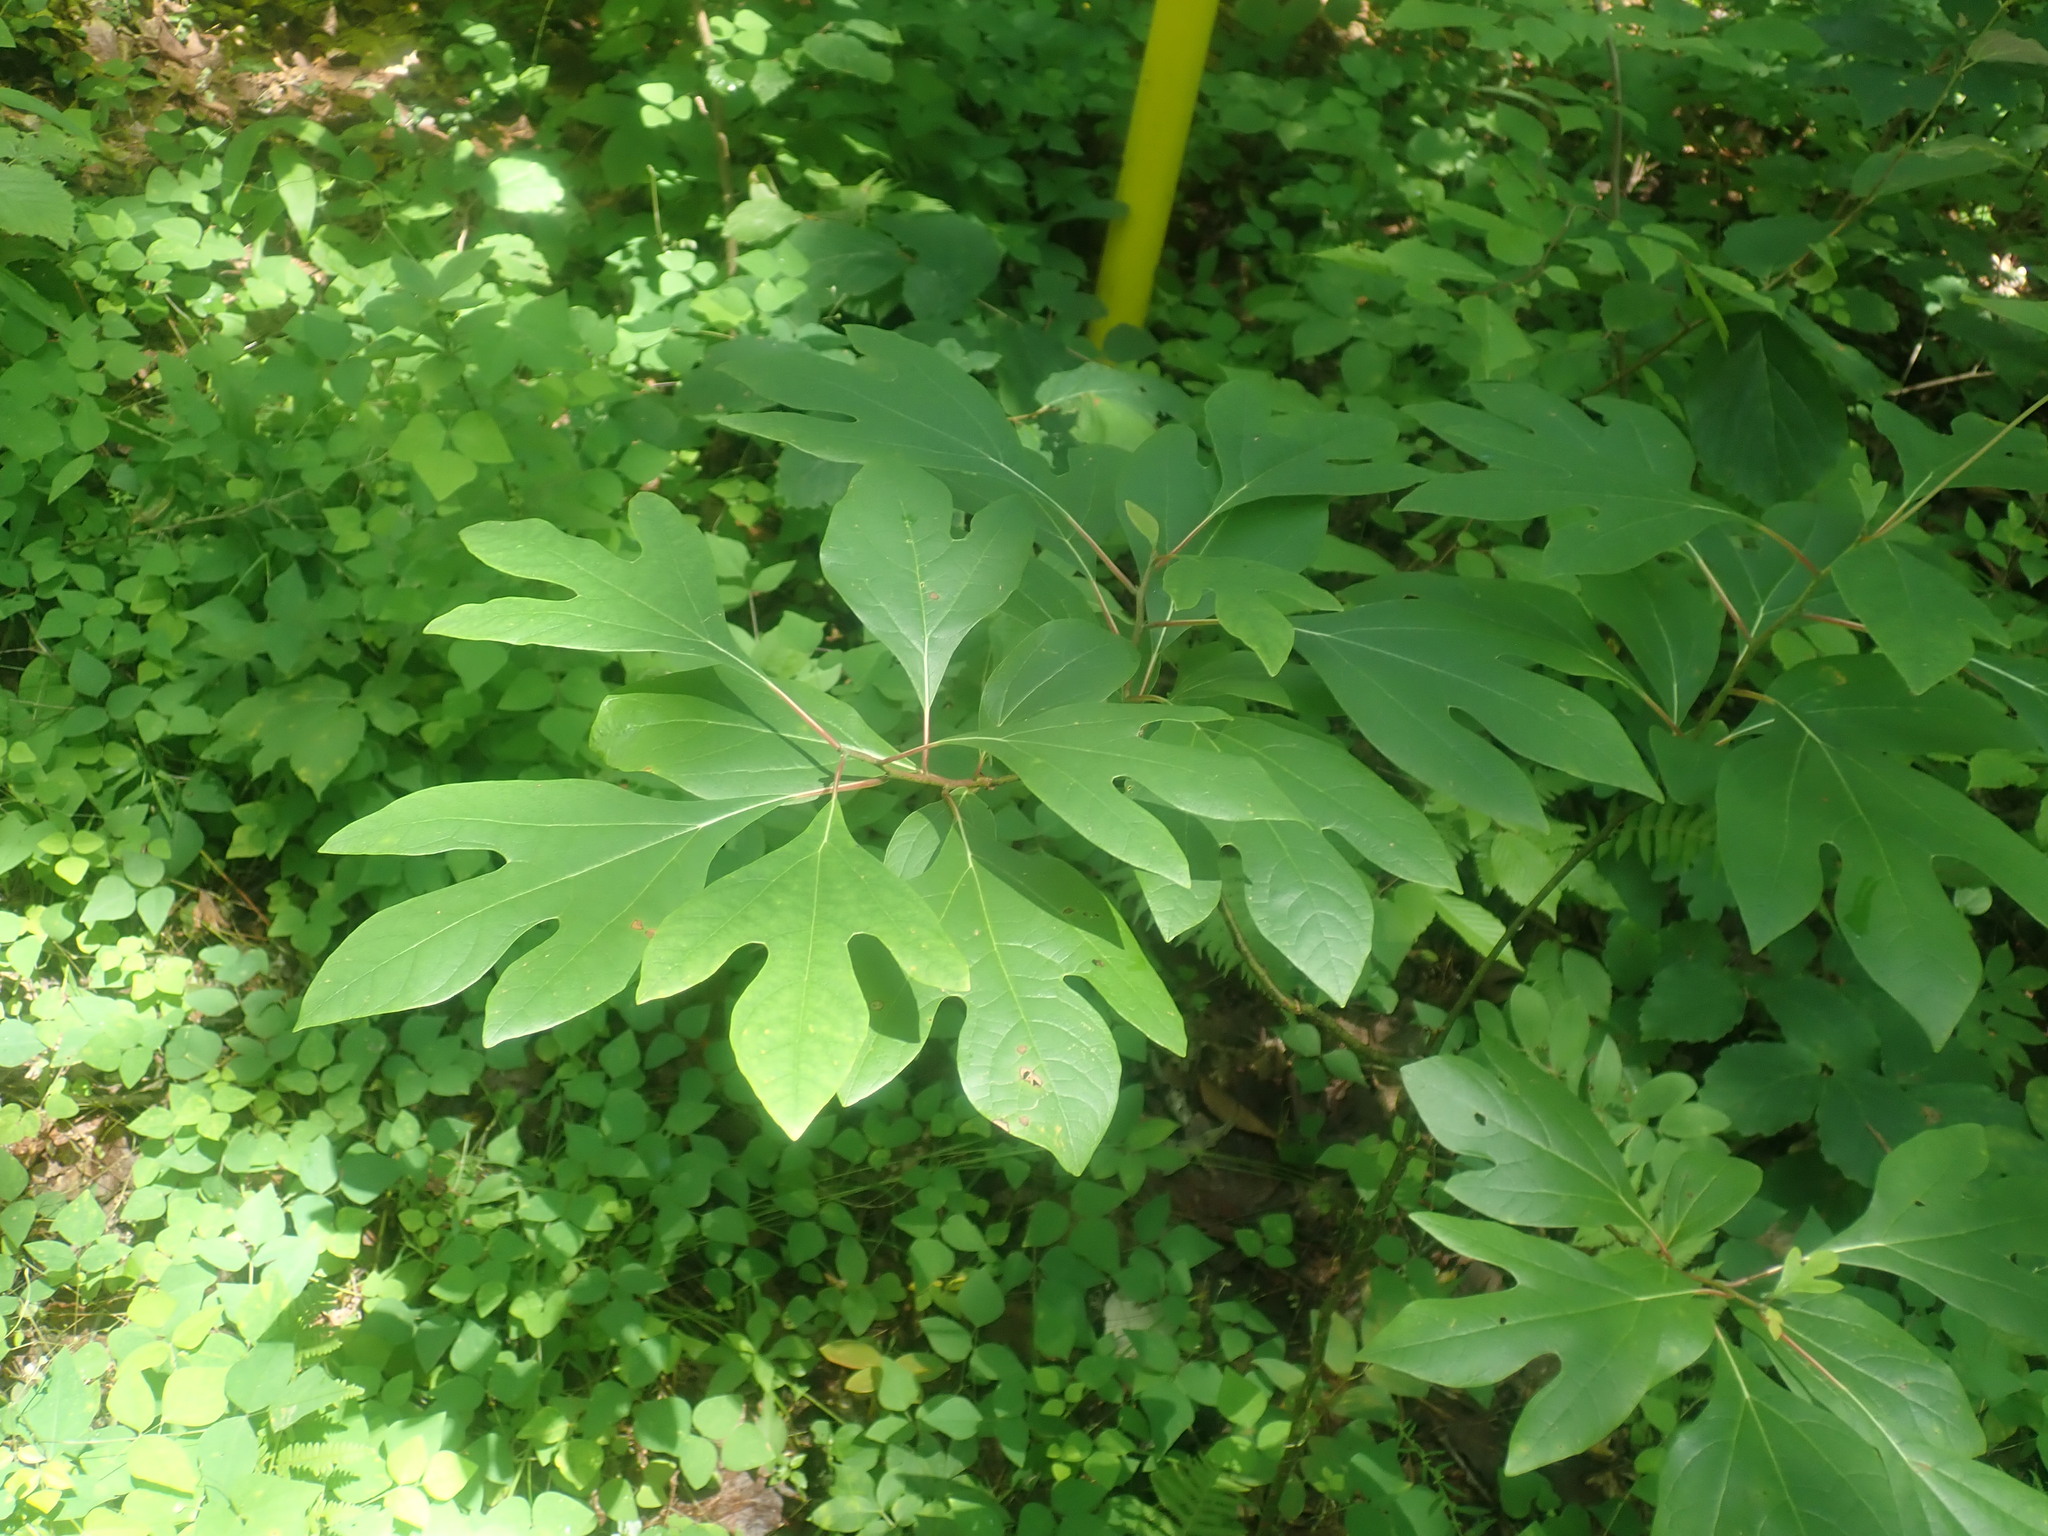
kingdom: Plantae
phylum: Tracheophyta
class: Magnoliopsida
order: Laurales
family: Lauraceae
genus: Sassafras
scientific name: Sassafras albidum
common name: Sassafras
